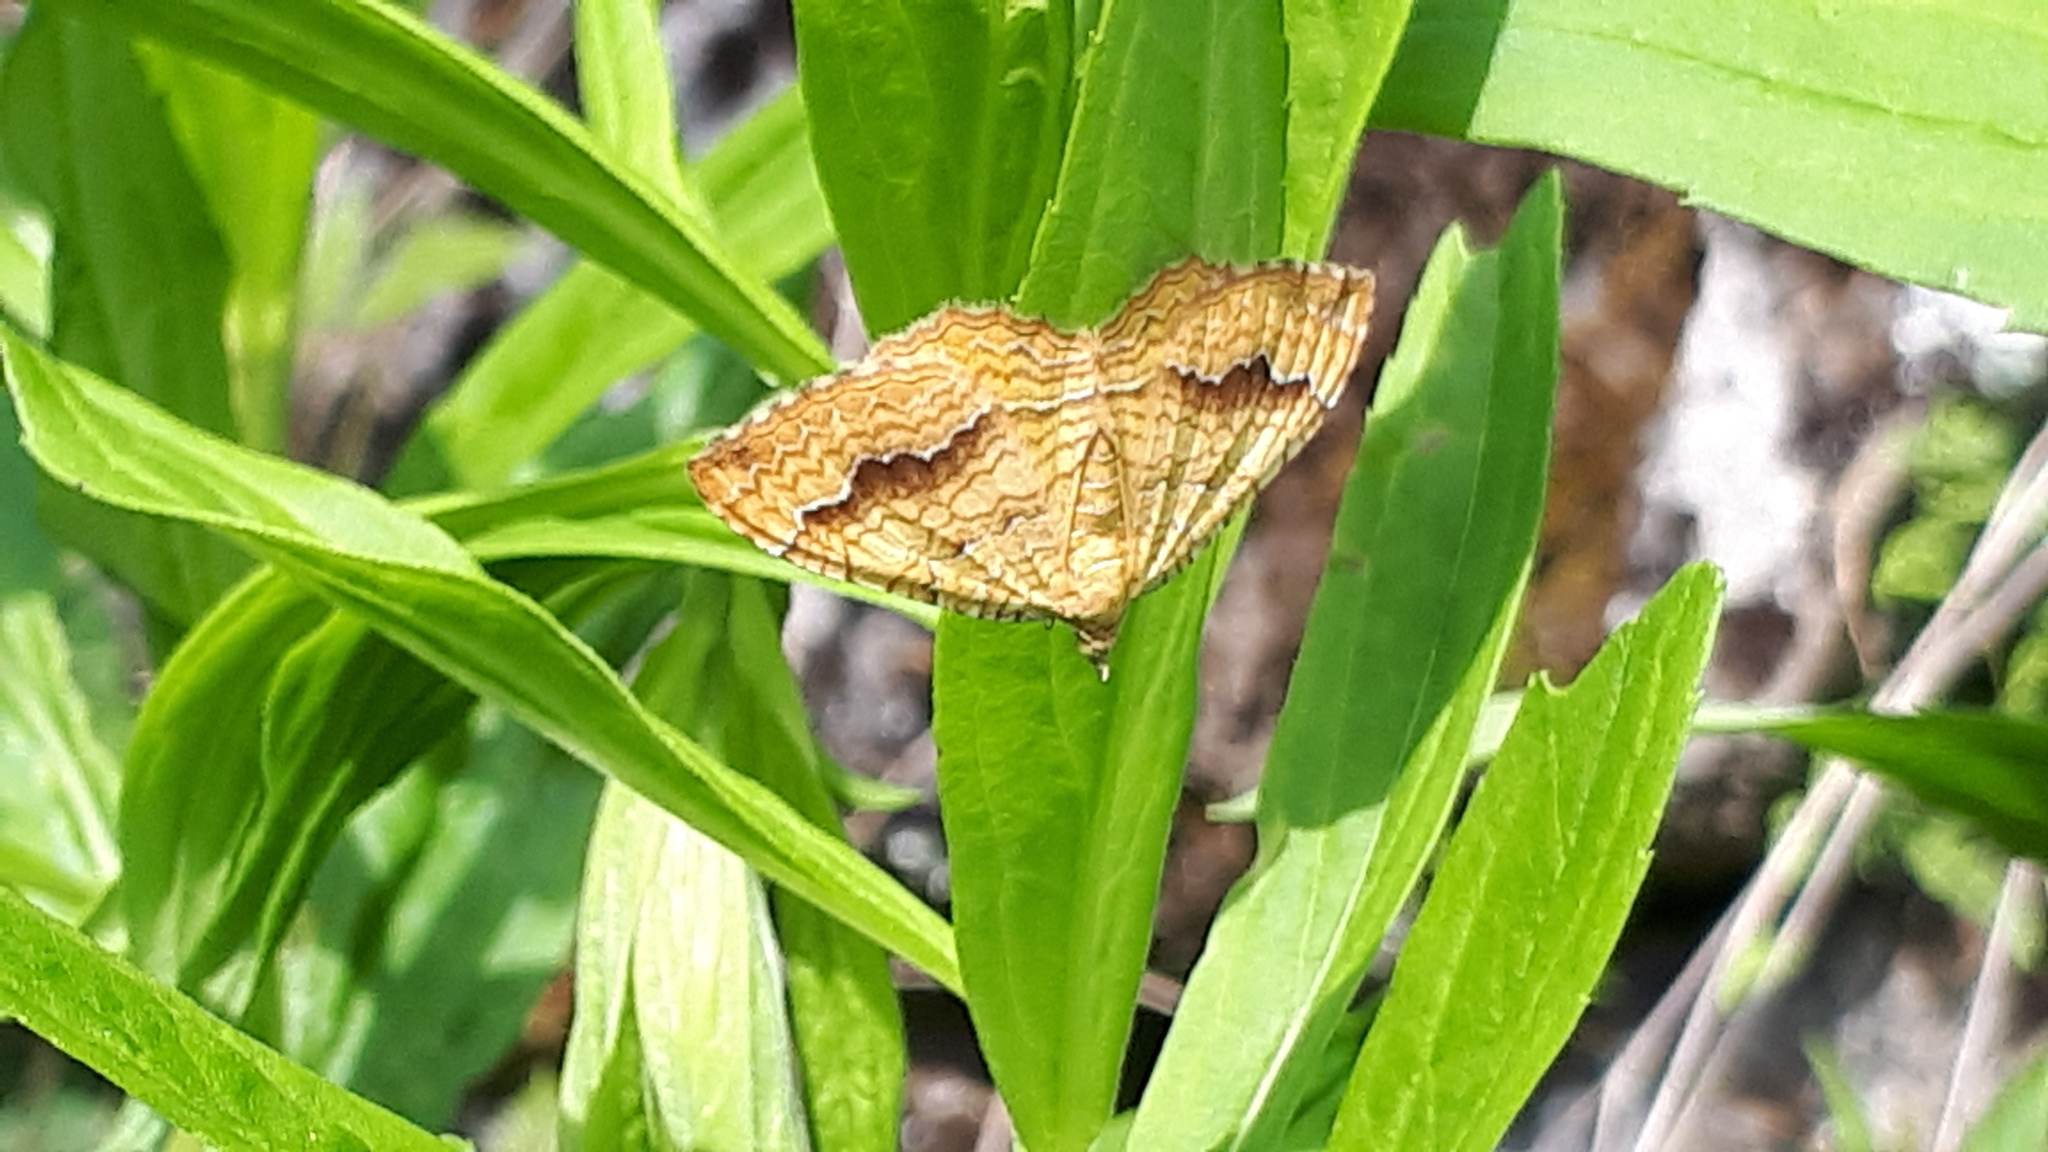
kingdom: Animalia
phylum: Arthropoda
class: Insecta
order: Lepidoptera
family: Geometridae
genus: Camptogramma
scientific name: Camptogramma bilineata
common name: Yellow shell
